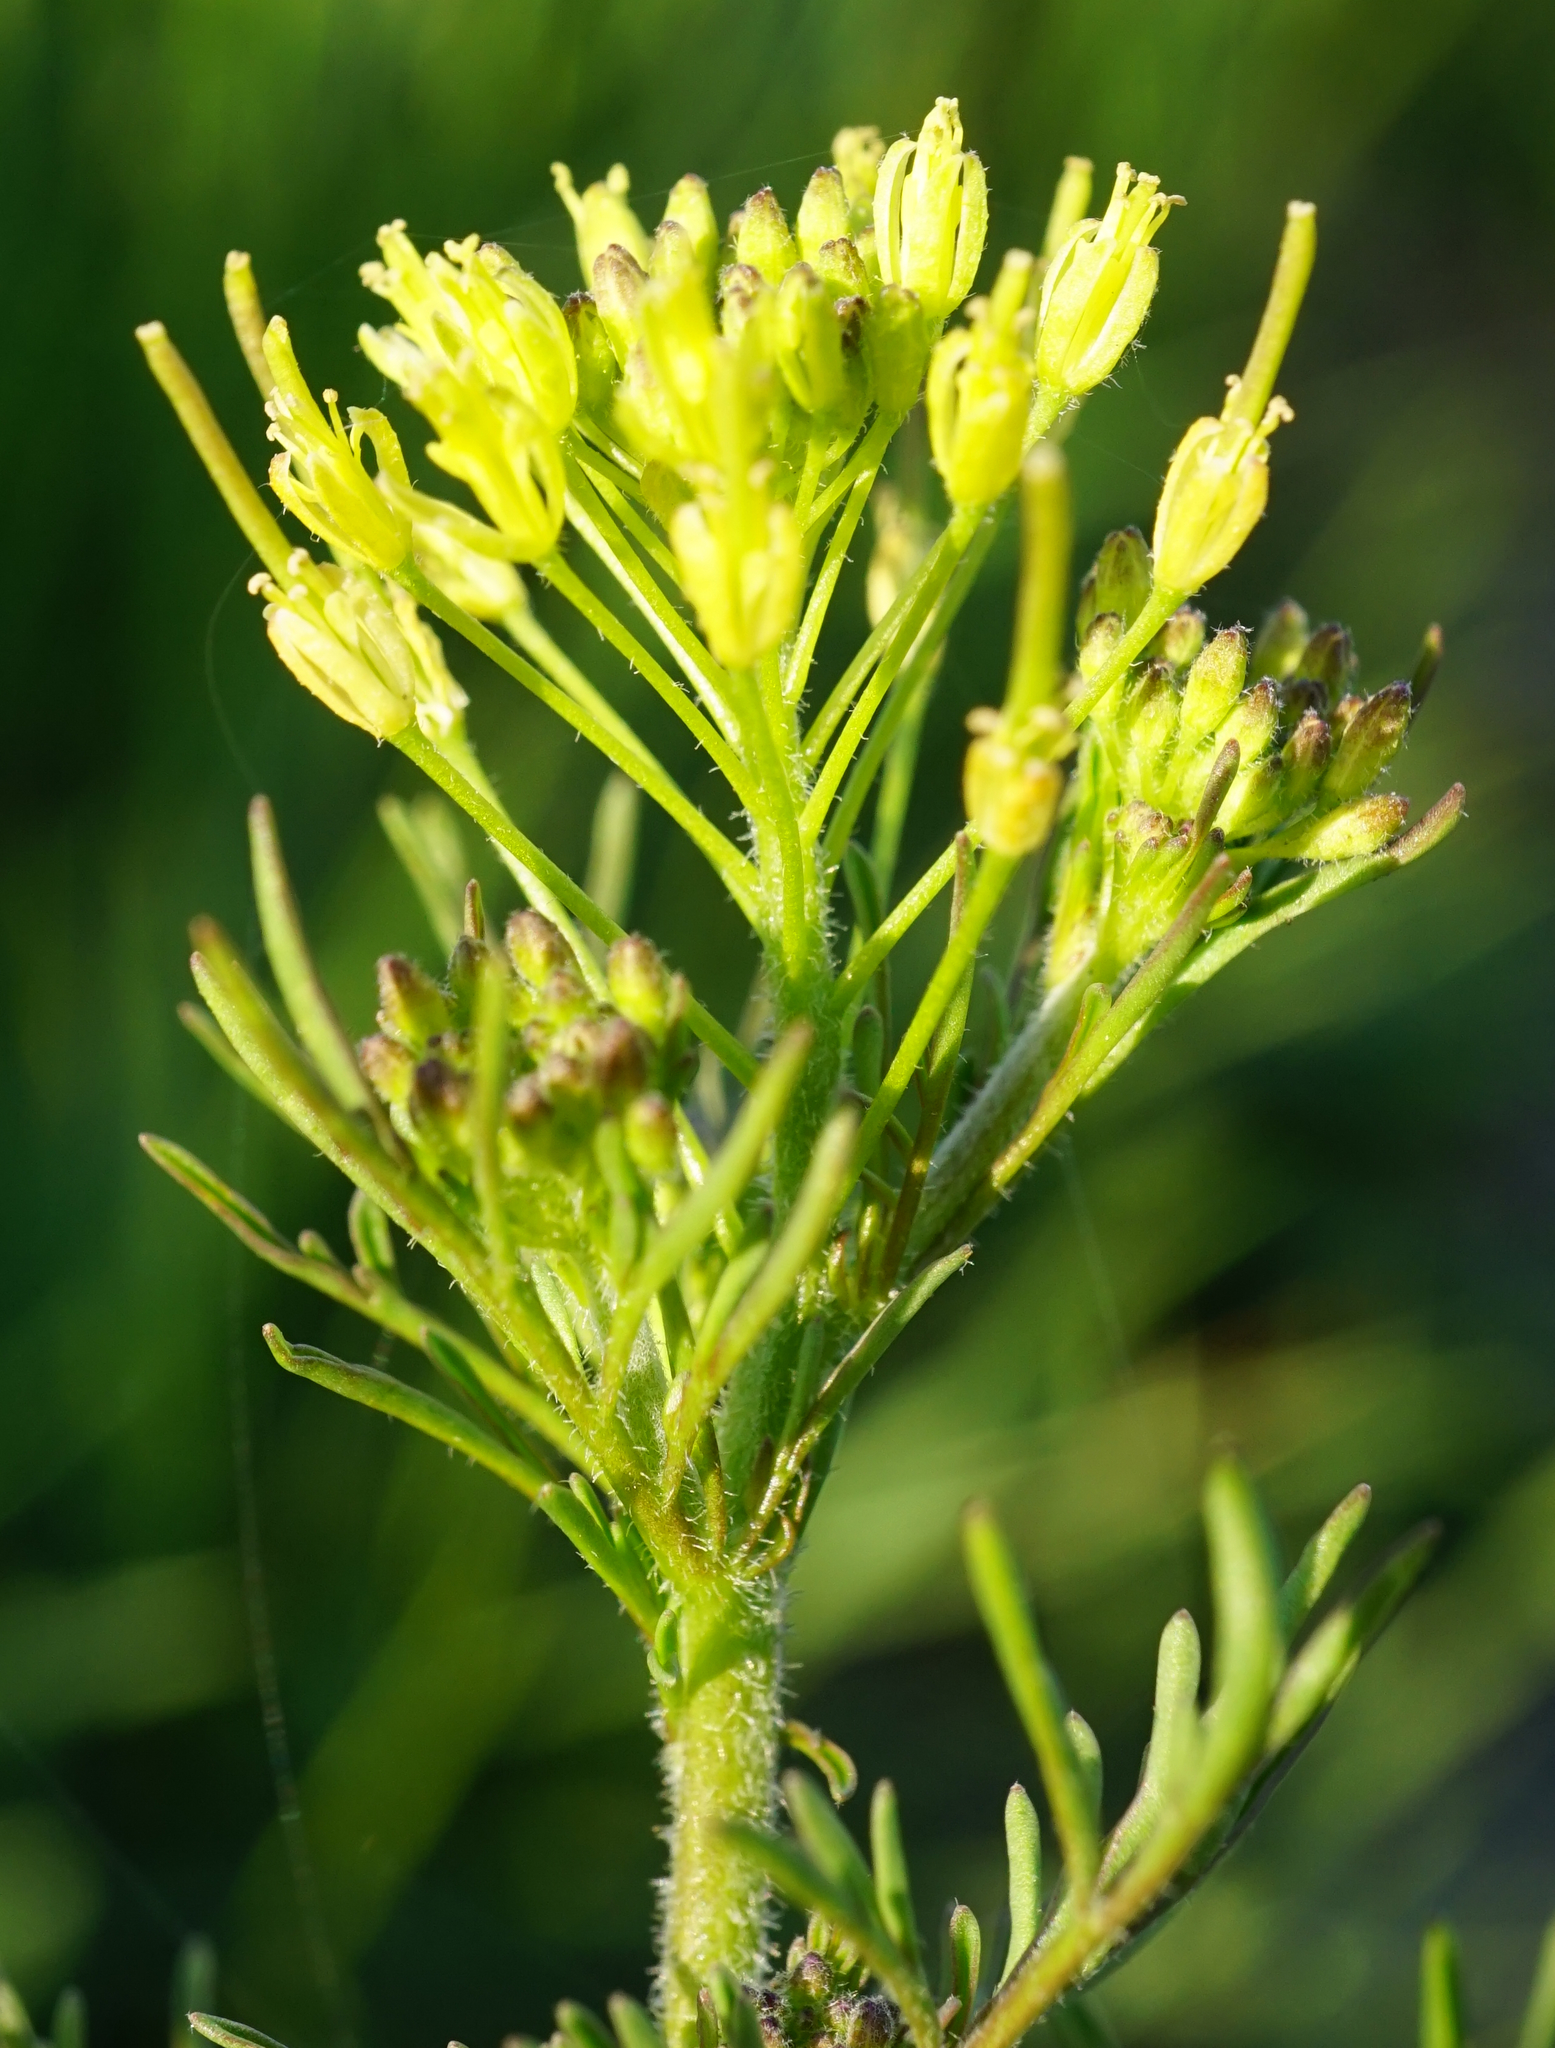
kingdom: Plantae
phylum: Tracheophyta
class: Magnoliopsida
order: Brassicales
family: Brassicaceae
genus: Descurainia
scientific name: Descurainia sophia
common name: Flixweed
